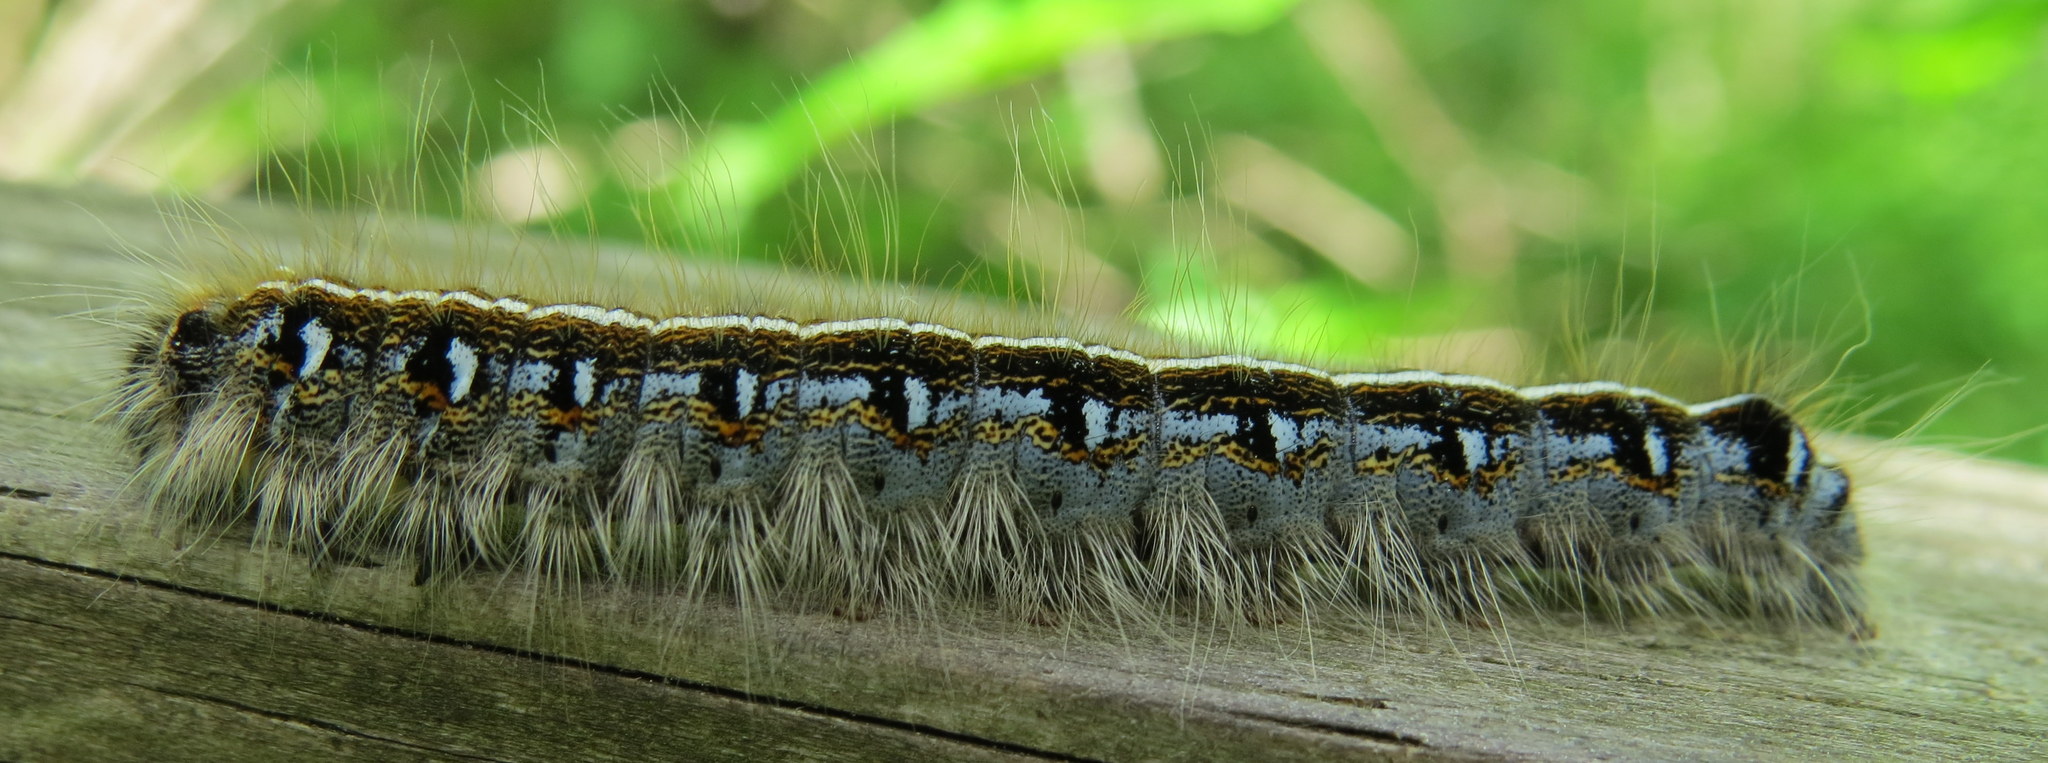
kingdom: Animalia
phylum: Arthropoda
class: Insecta
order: Lepidoptera
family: Lasiocampidae
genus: Malacosoma
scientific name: Malacosoma americana
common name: Eastern tent caterpillar moth
